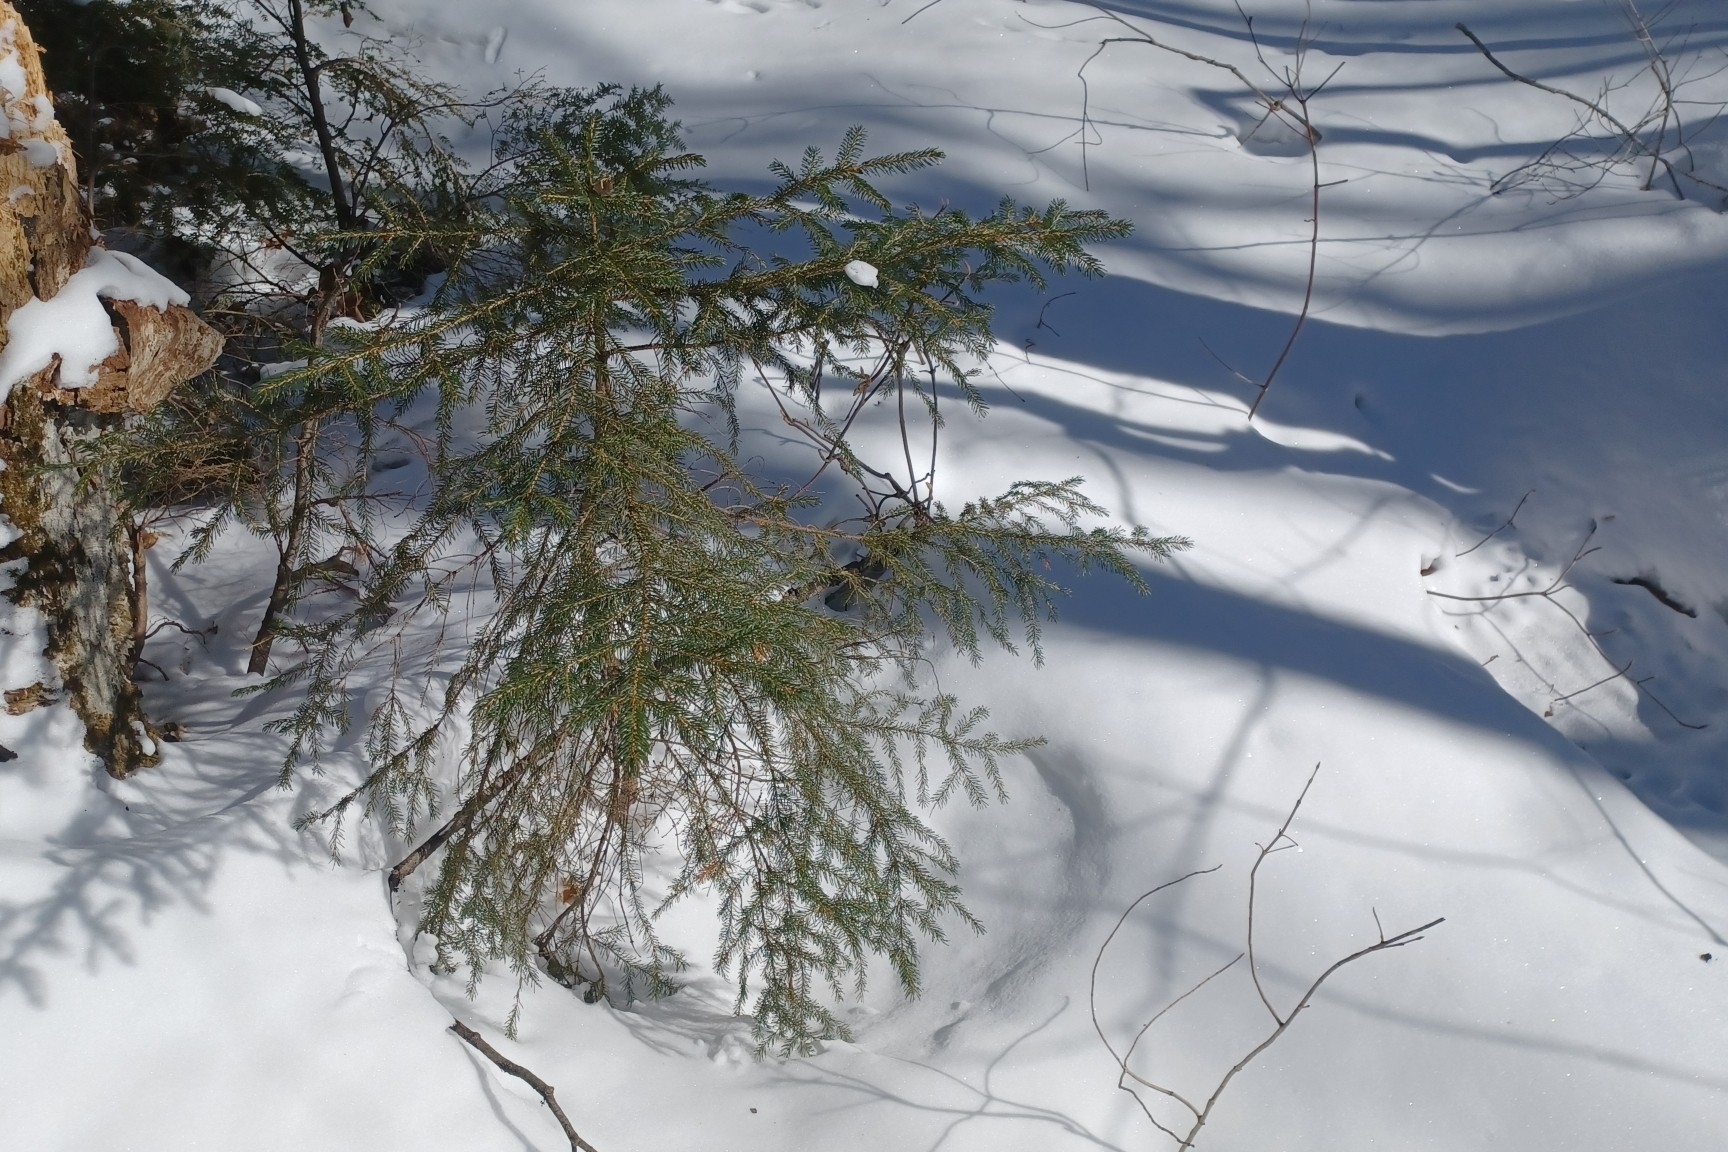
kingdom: Plantae
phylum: Tracheophyta
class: Pinopsida
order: Pinales
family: Pinaceae
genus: Picea
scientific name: Picea rubens
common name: Red spruce
